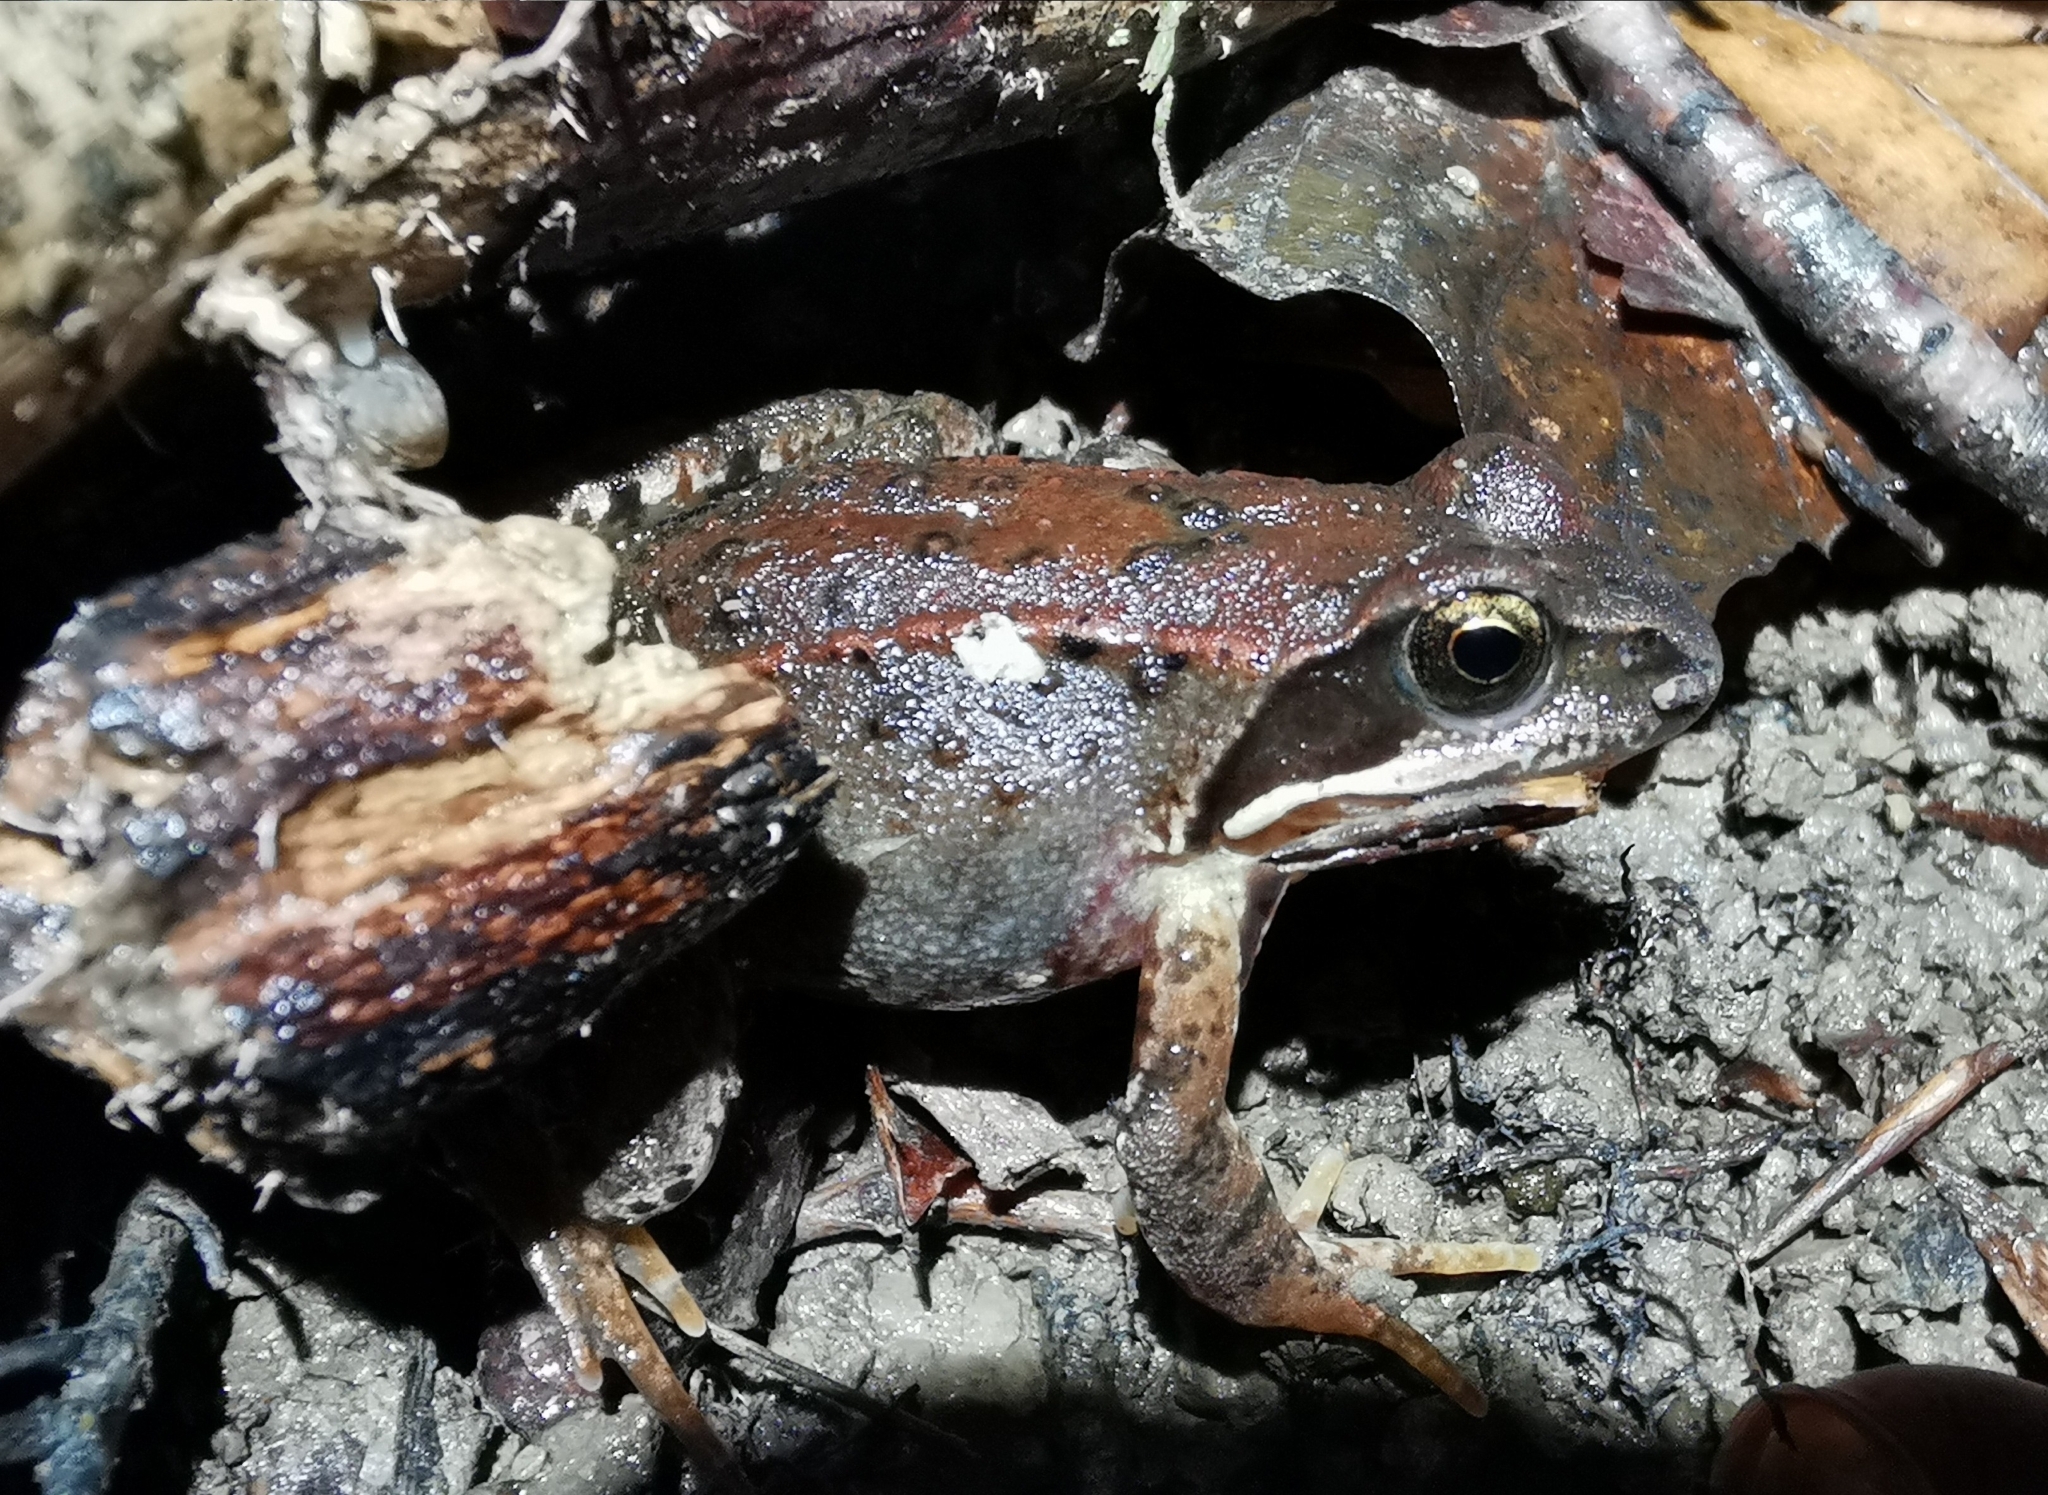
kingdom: Animalia
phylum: Chordata
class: Amphibia
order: Anura
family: Ranidae
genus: Rana
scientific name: Rana temporaria
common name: Common frog
